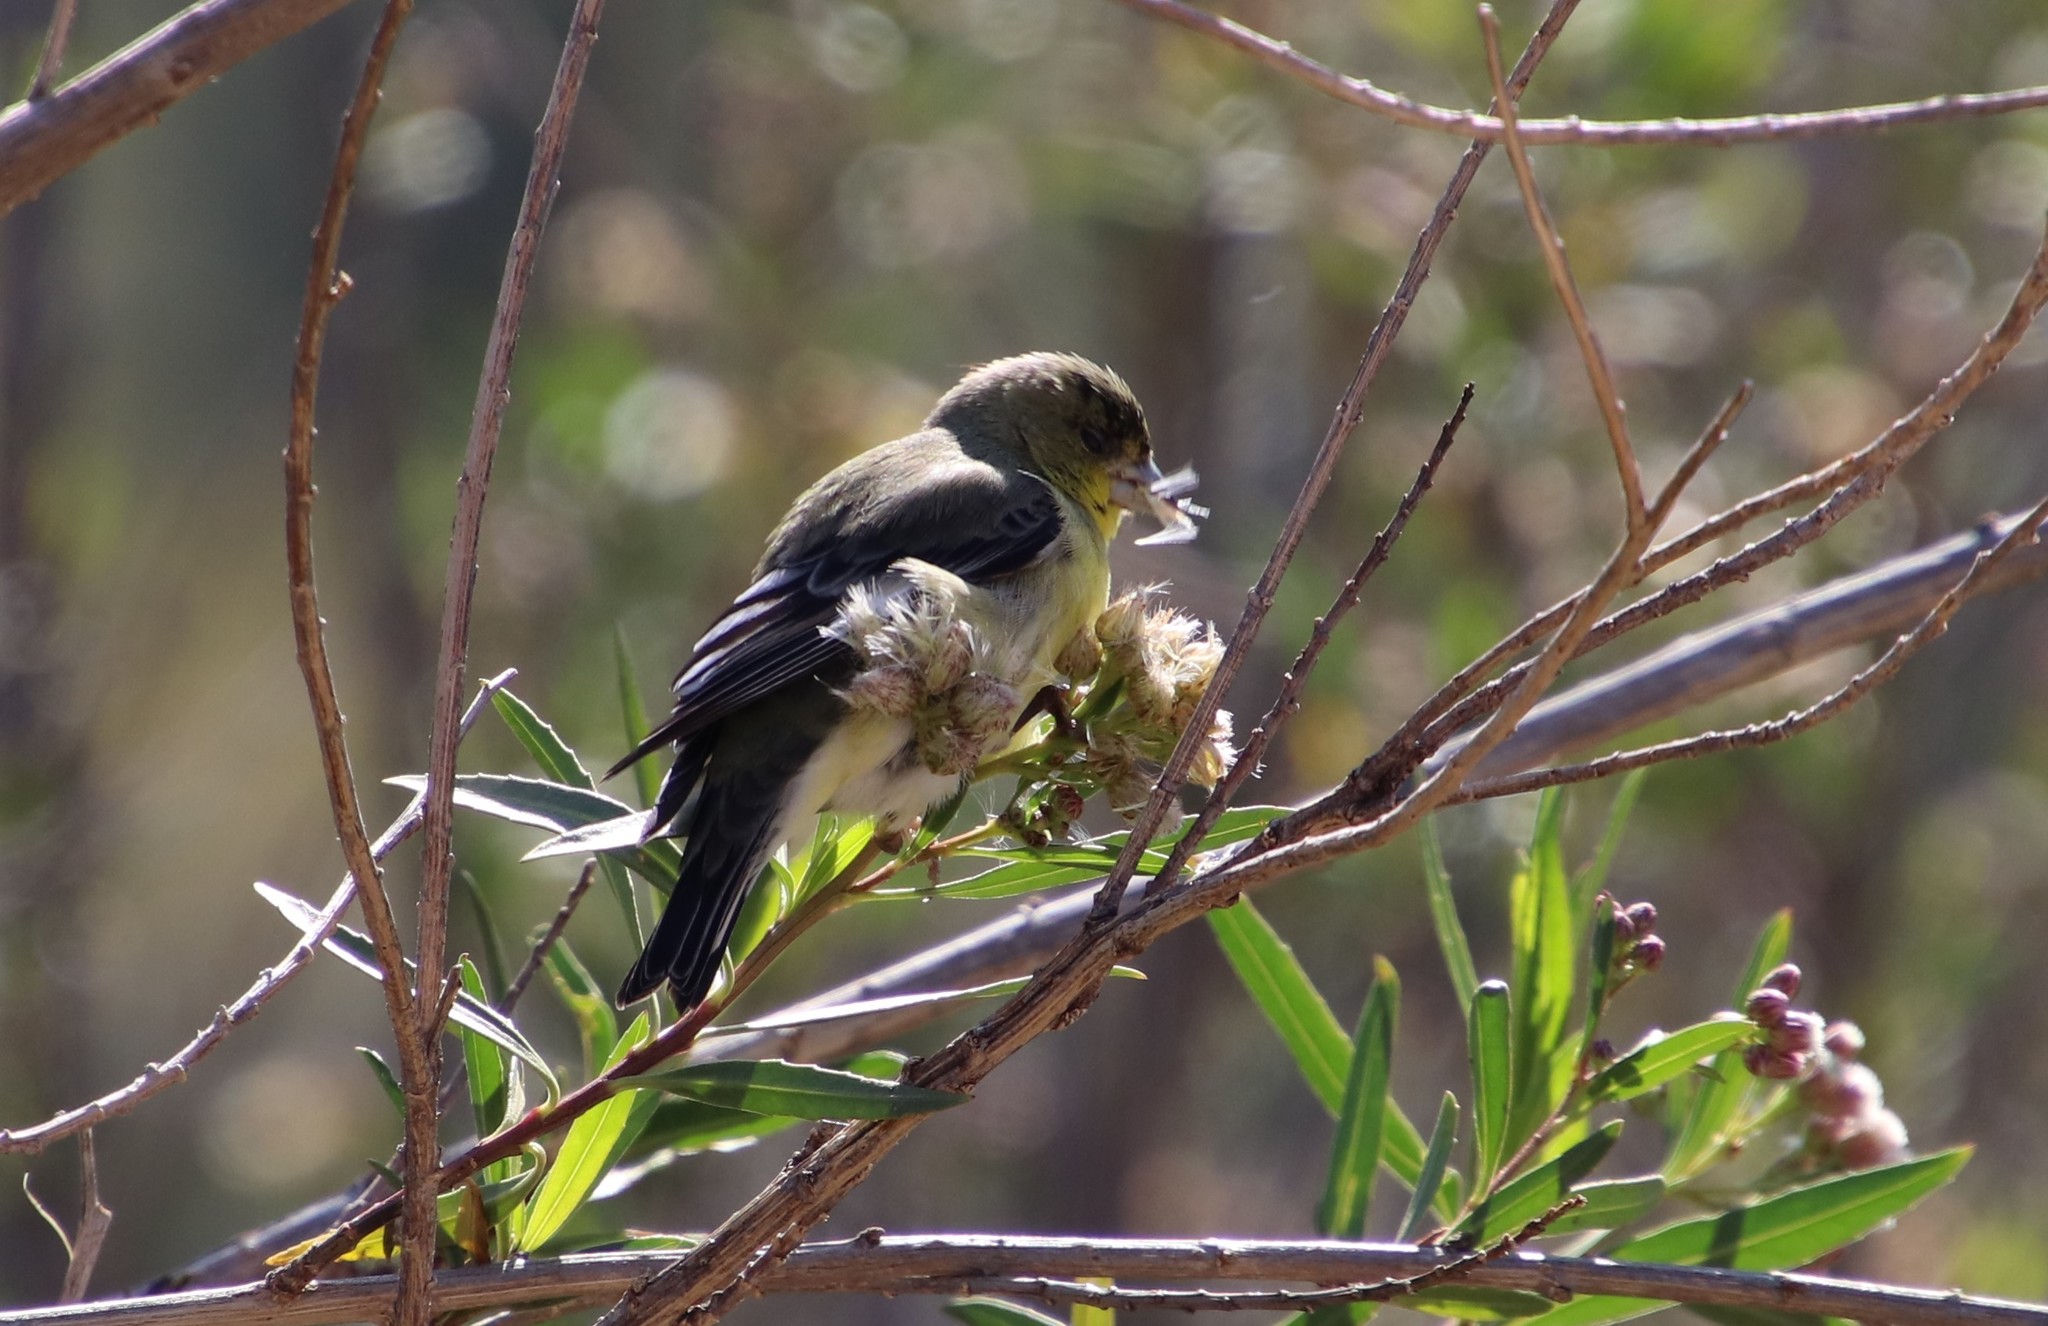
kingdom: Animalia
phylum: Chordata
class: Aves
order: Passeriformes
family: Fringillidae
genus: Spinus
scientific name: Spinus psaltria
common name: Lesser goldfinch
